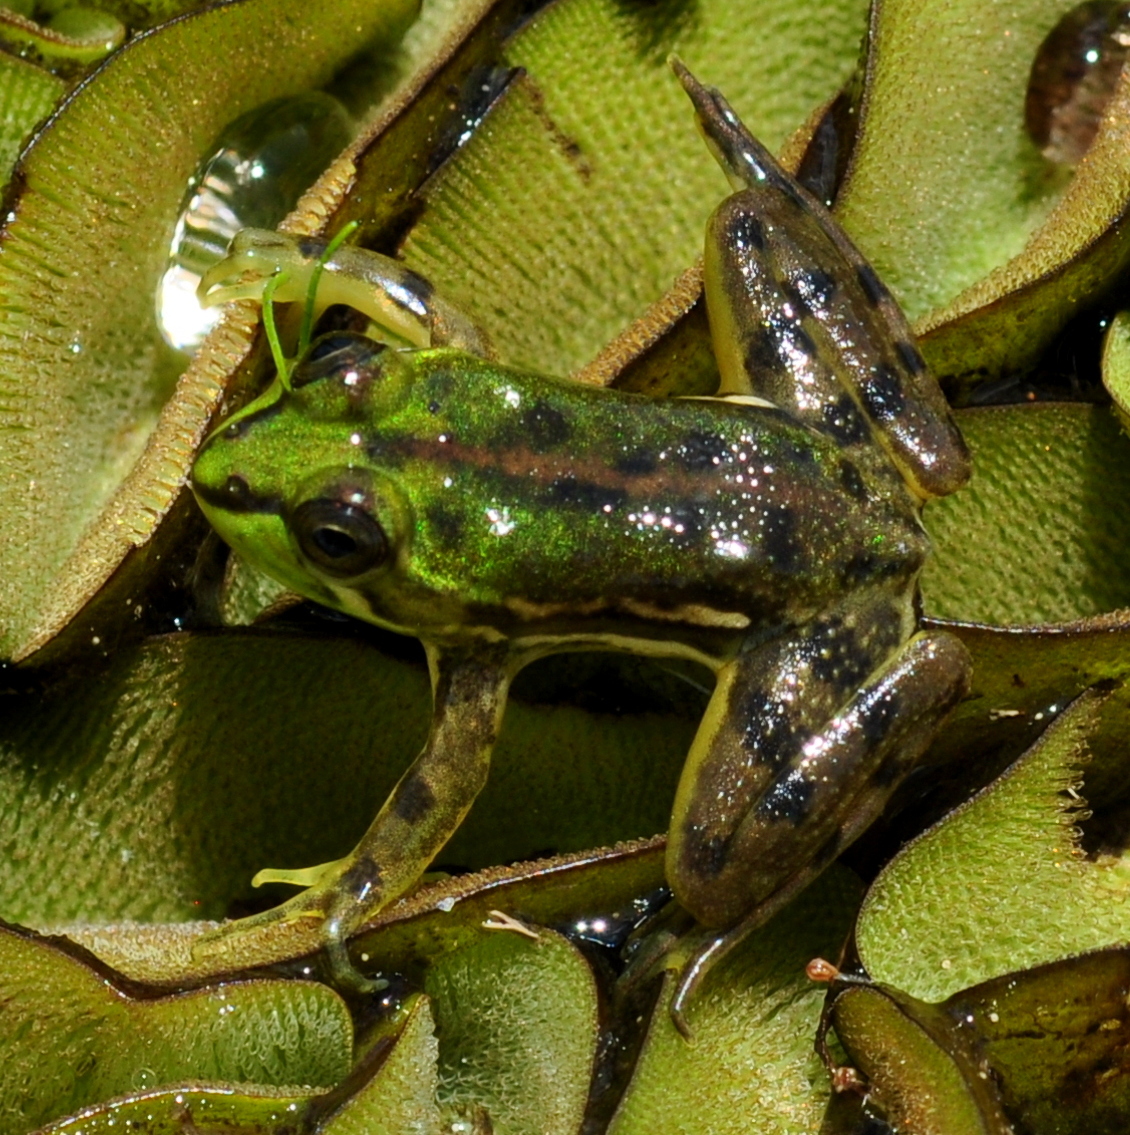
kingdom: Animalia
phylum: Chordata
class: Amphibia
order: Anura
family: Hylidae
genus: Pseudis
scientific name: Pseudis minuta
